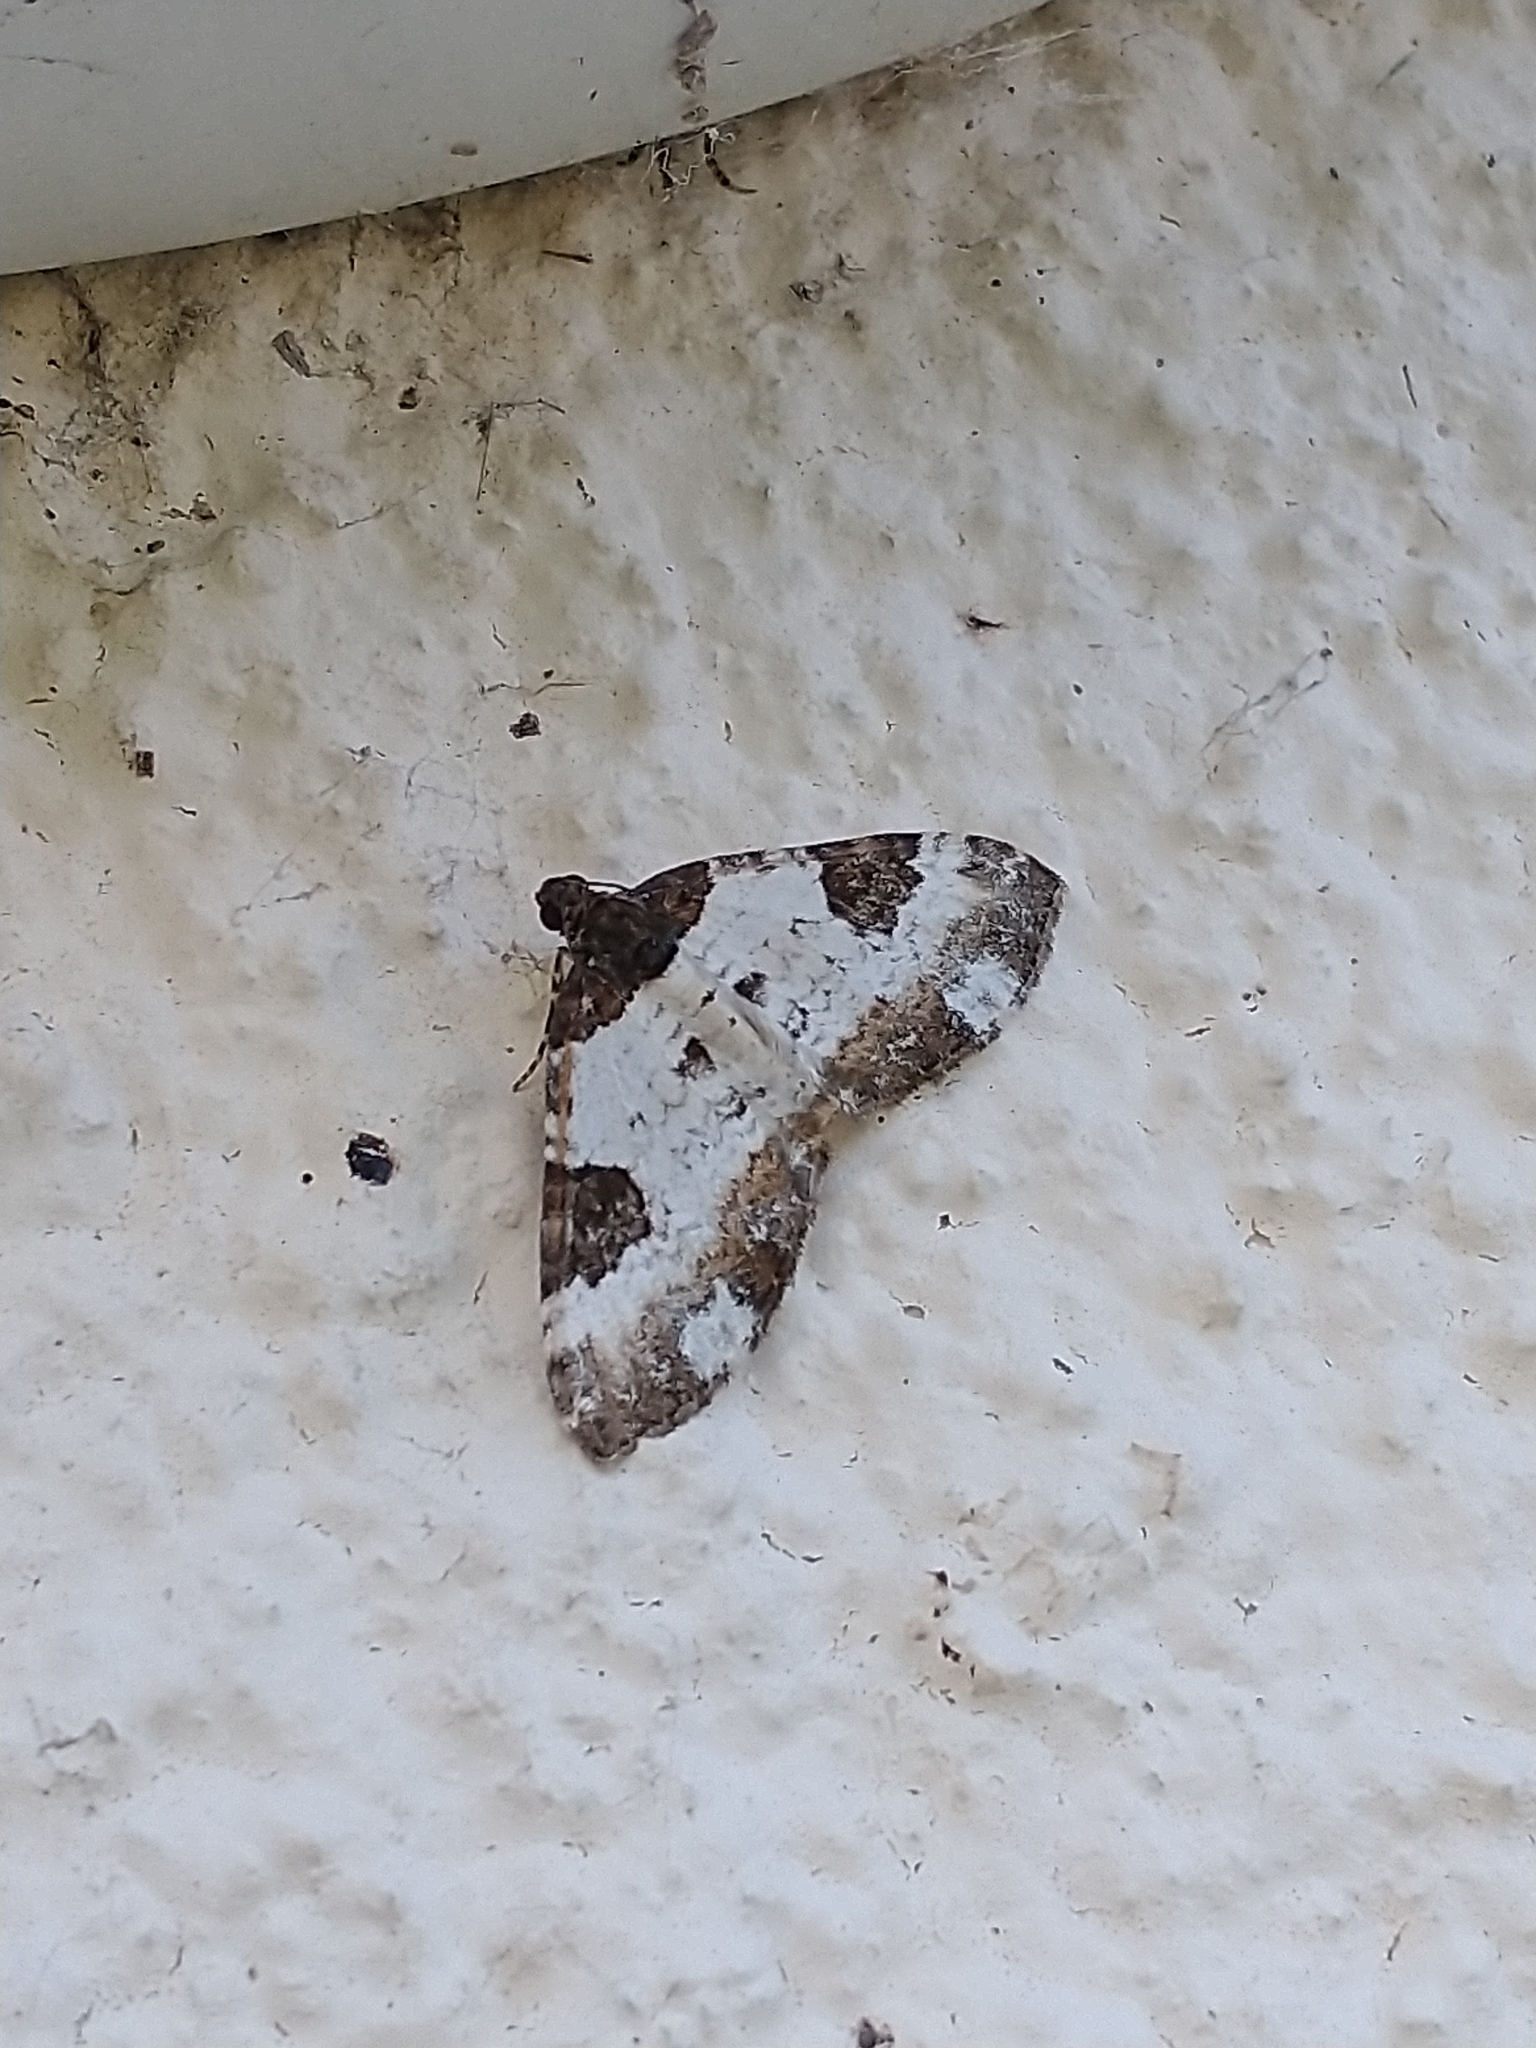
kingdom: Animalia
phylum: Arthropoda
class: Insecta
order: Lepidoptera
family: Geometridae
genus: Melanthia
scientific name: Melanthia procellata
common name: Pretty chalk carpet
